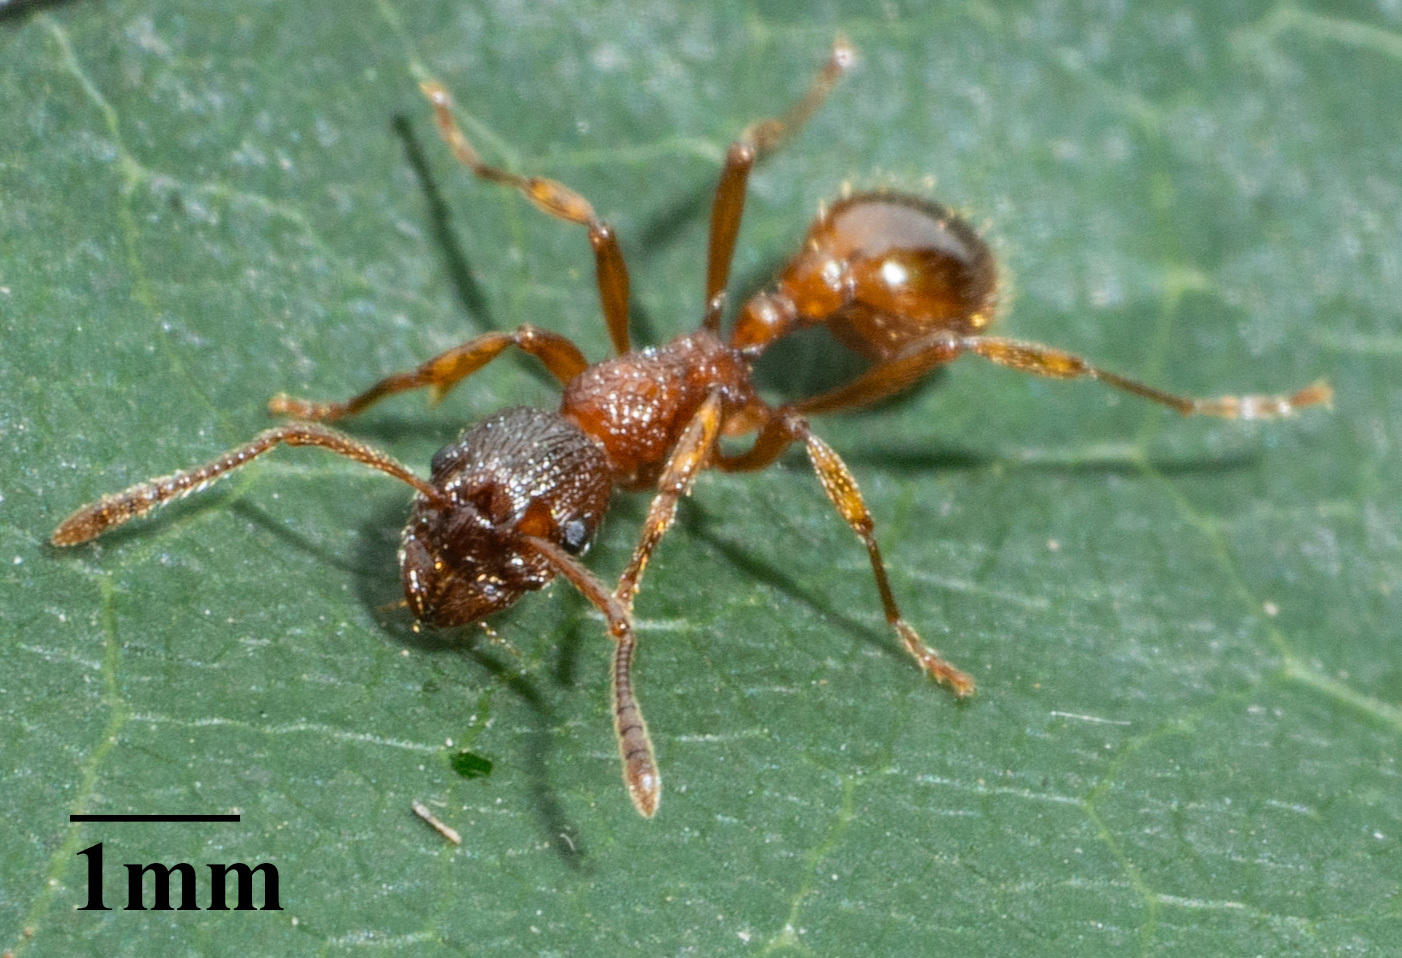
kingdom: Animalia
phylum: Arthropoda
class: Insecta
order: Hymenoptera
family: Formicidae
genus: Myrmica
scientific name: Myrmica rubra
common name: European fire ant
